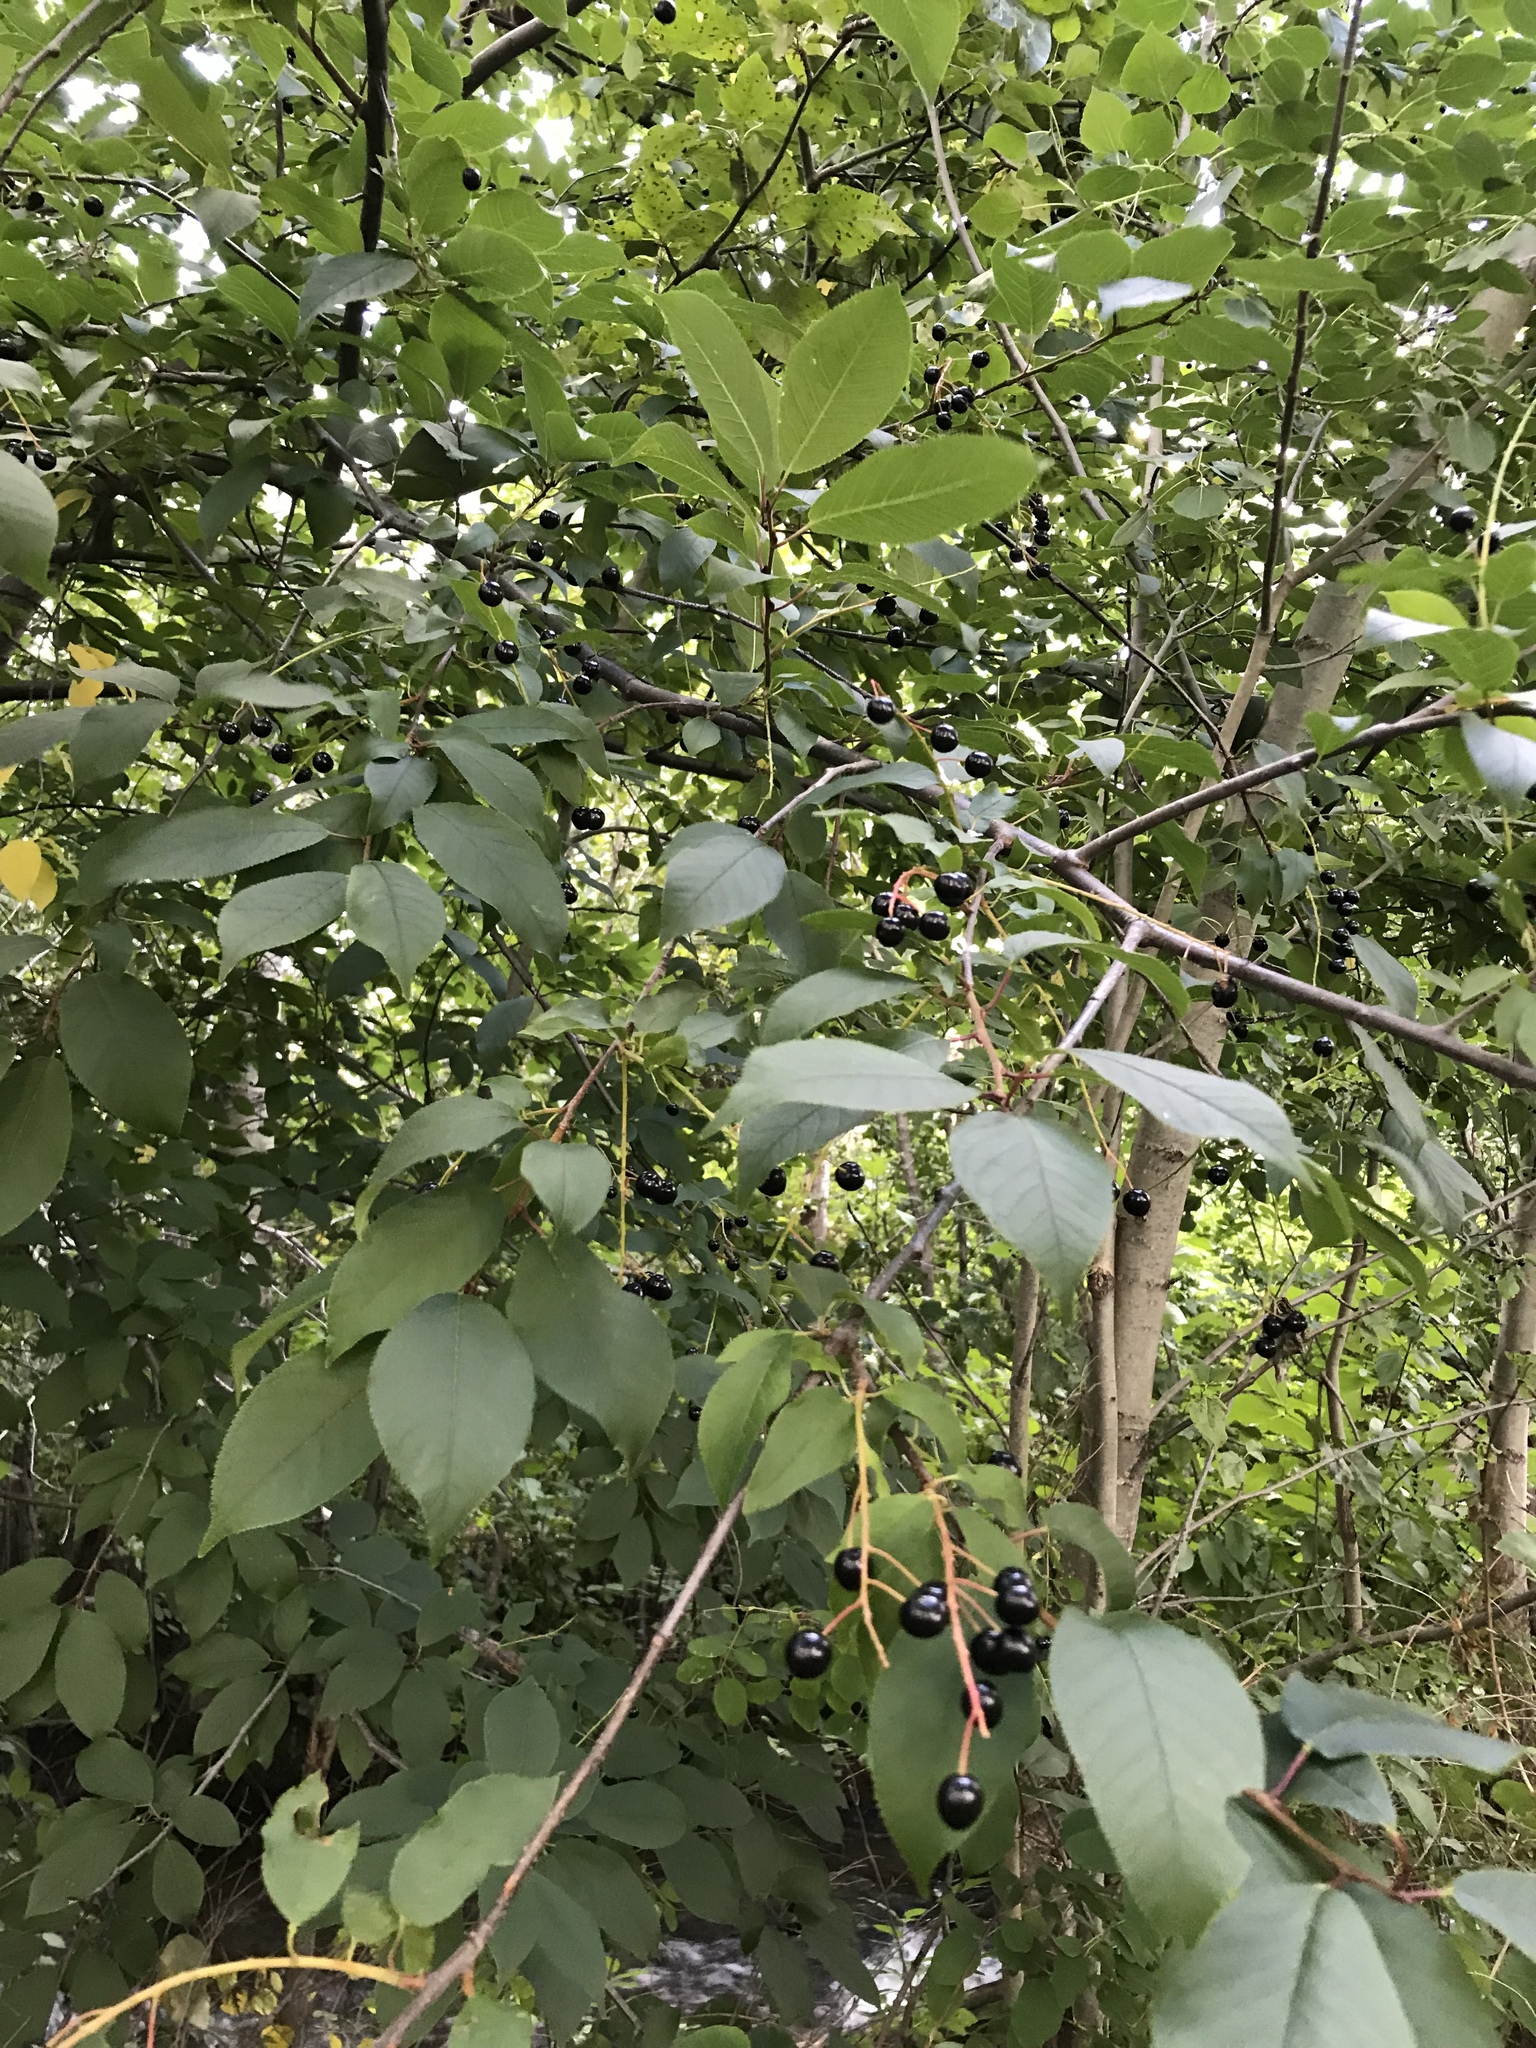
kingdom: Plantae
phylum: Tracheophyta
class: Magnoliopsida
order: Rosales
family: Rosaceae
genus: Prunus
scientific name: Prunus virginiana
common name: Chokecherry
